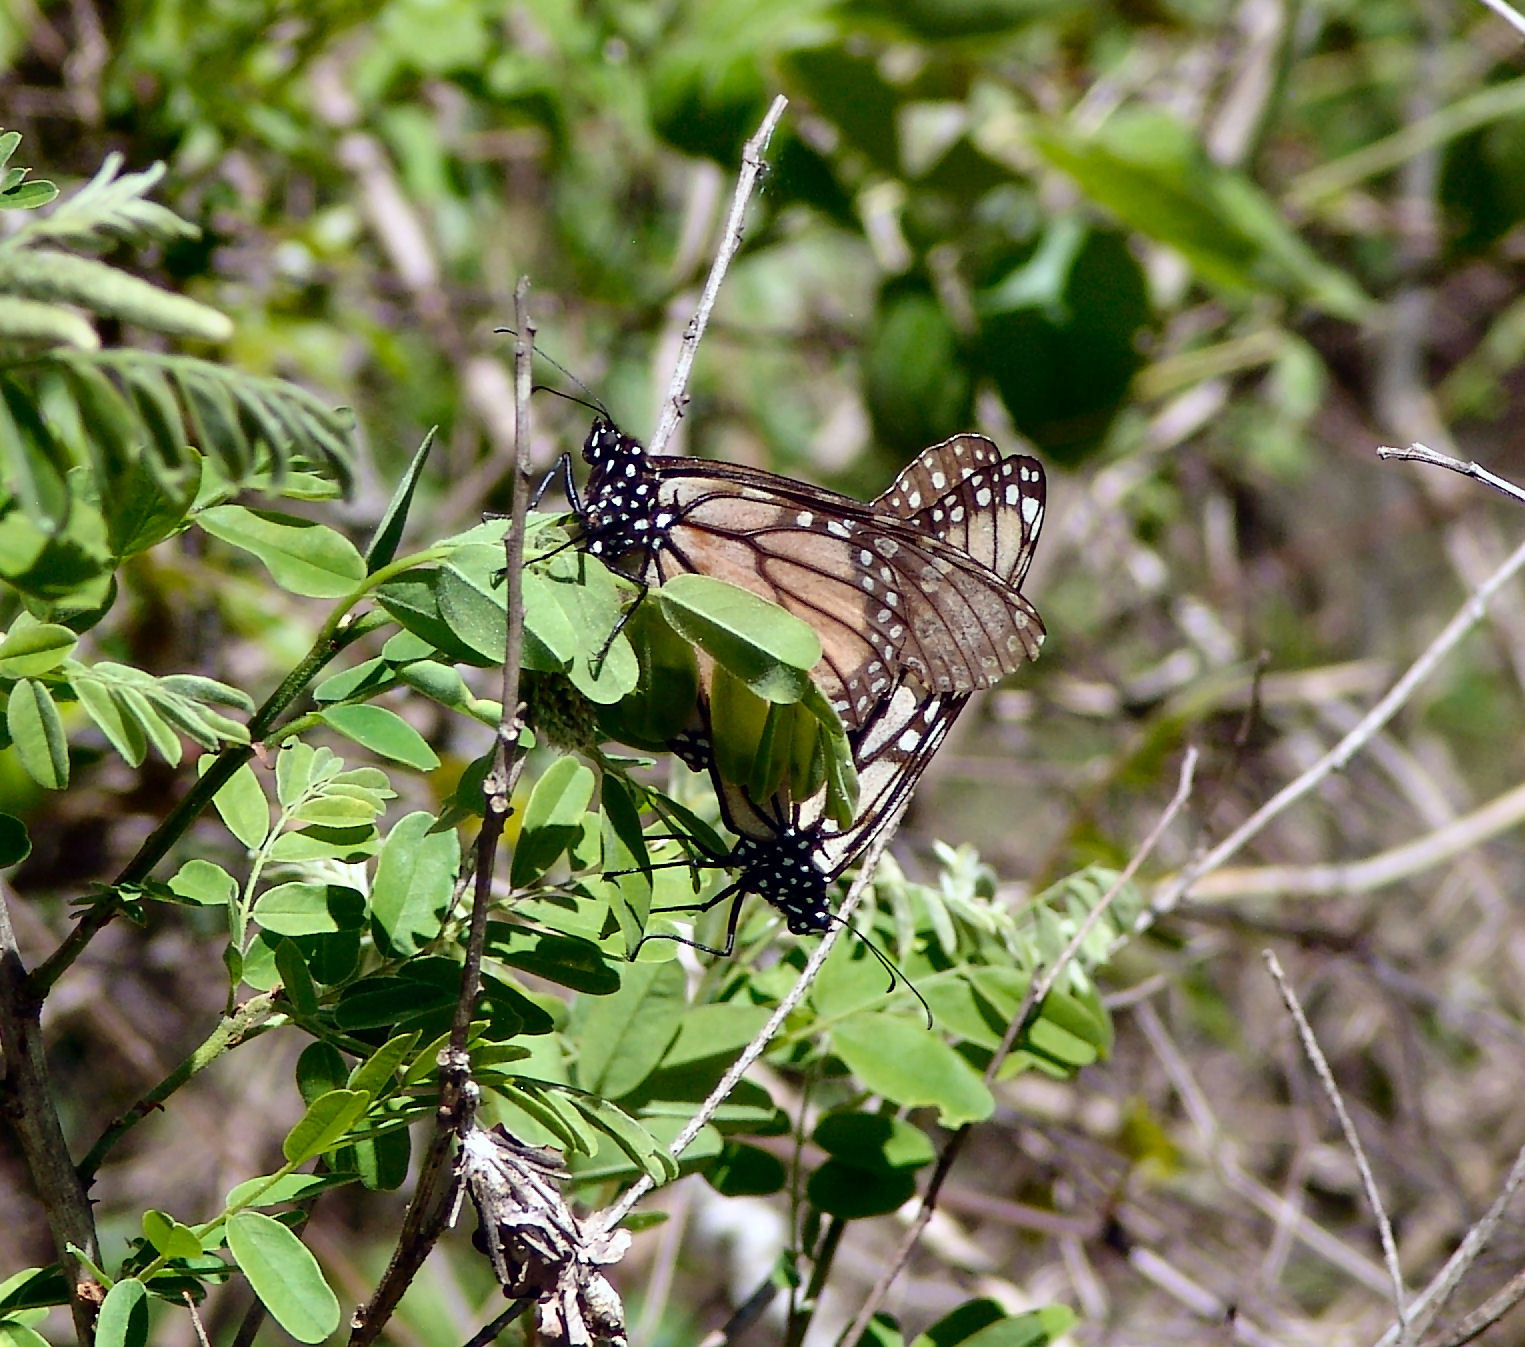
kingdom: Animalia
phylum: Arthropoda
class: Insecta
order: Lepidoptera
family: Nymphalidae
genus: Danaus
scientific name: Danaus plexippus
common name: Monarch
